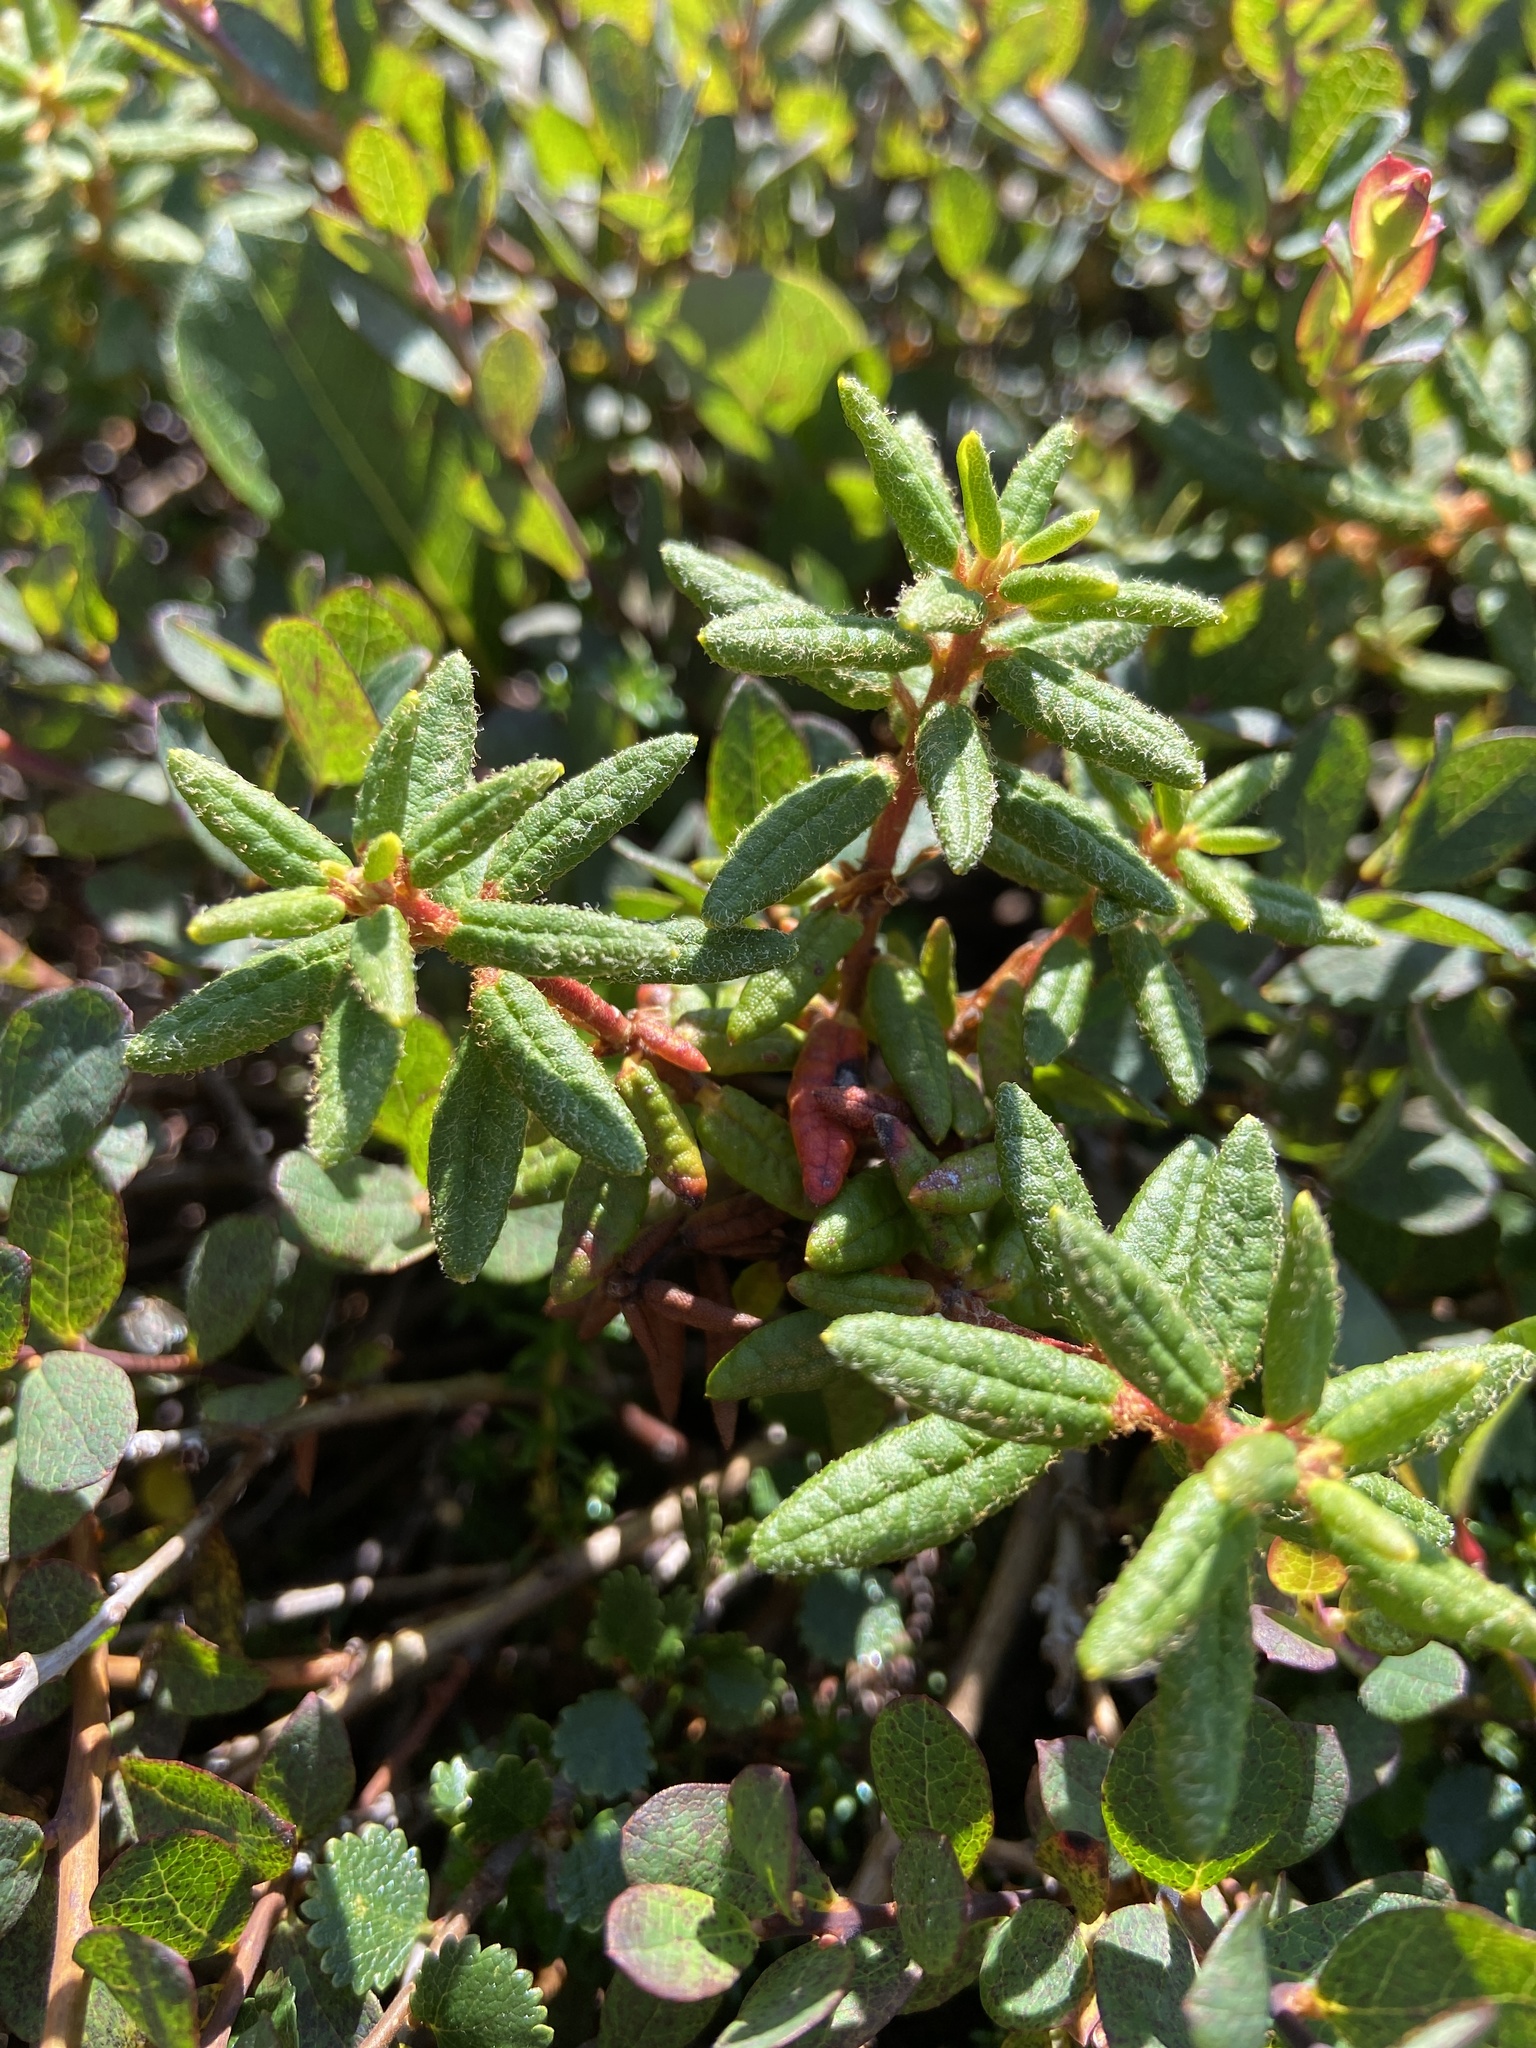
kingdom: Plantae
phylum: Tracheophyta
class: Magnoliopsida
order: Ericales
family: Ericaceae
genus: Rhododendron
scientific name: Rhododendron groenlandicum
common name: Bog labrador tea
